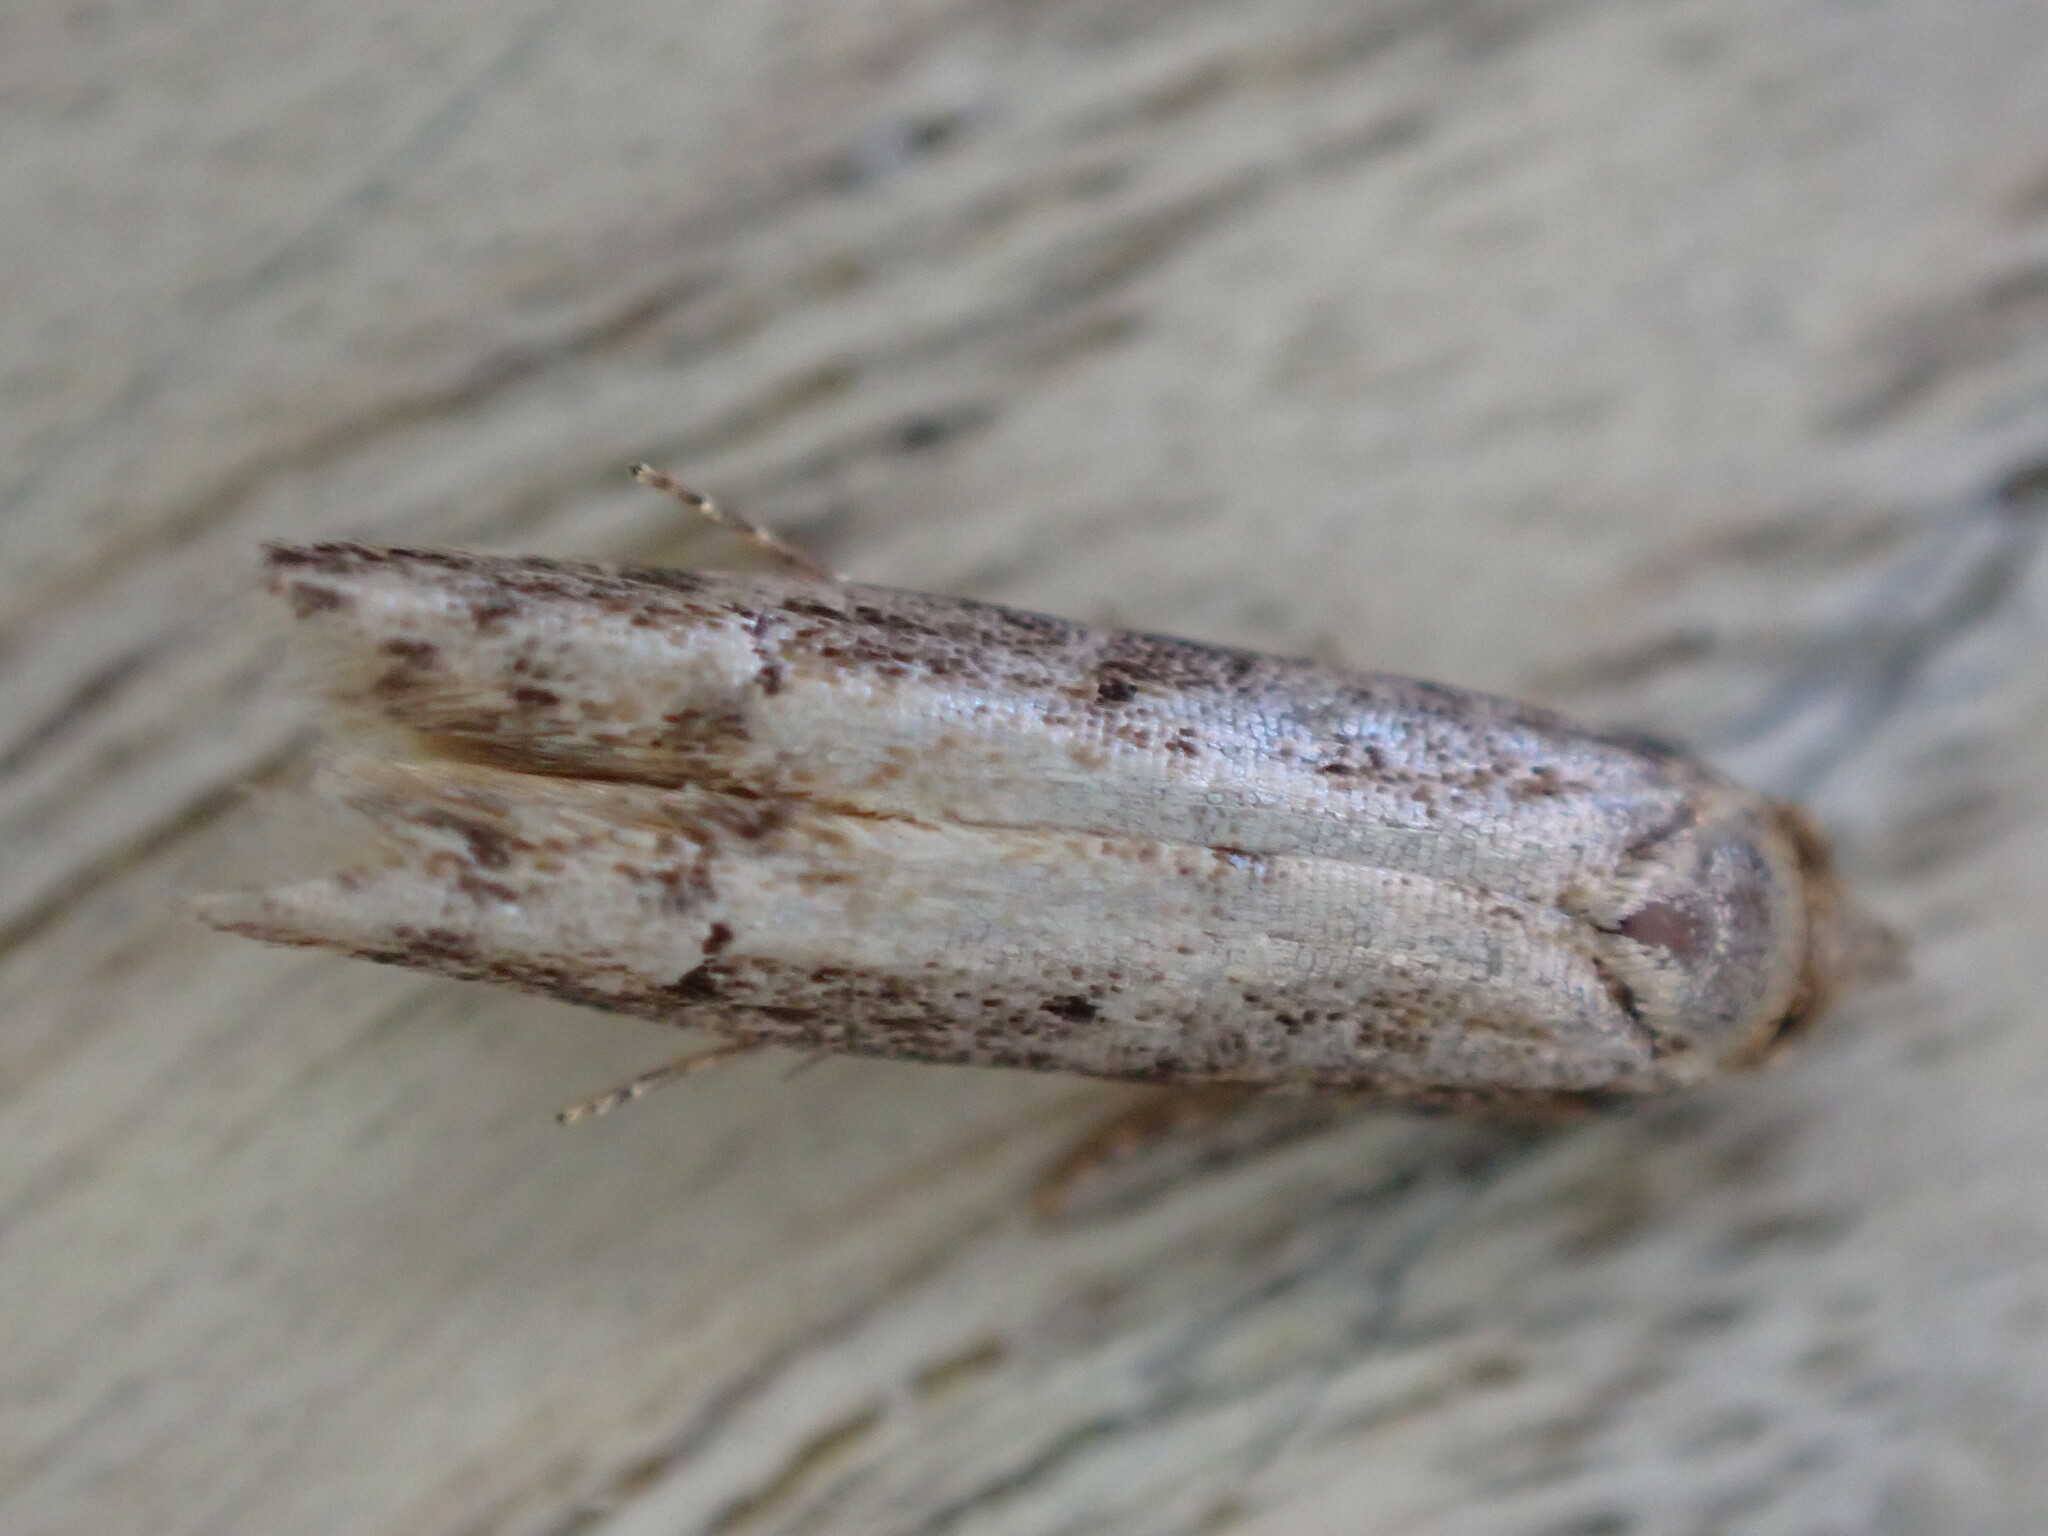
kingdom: Animalia
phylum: Arthropoda
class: Insecta
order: Lepidoptera
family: Blastobasidae
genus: Blastobasis
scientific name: Blastobasis adustella
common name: Dingy dowd
